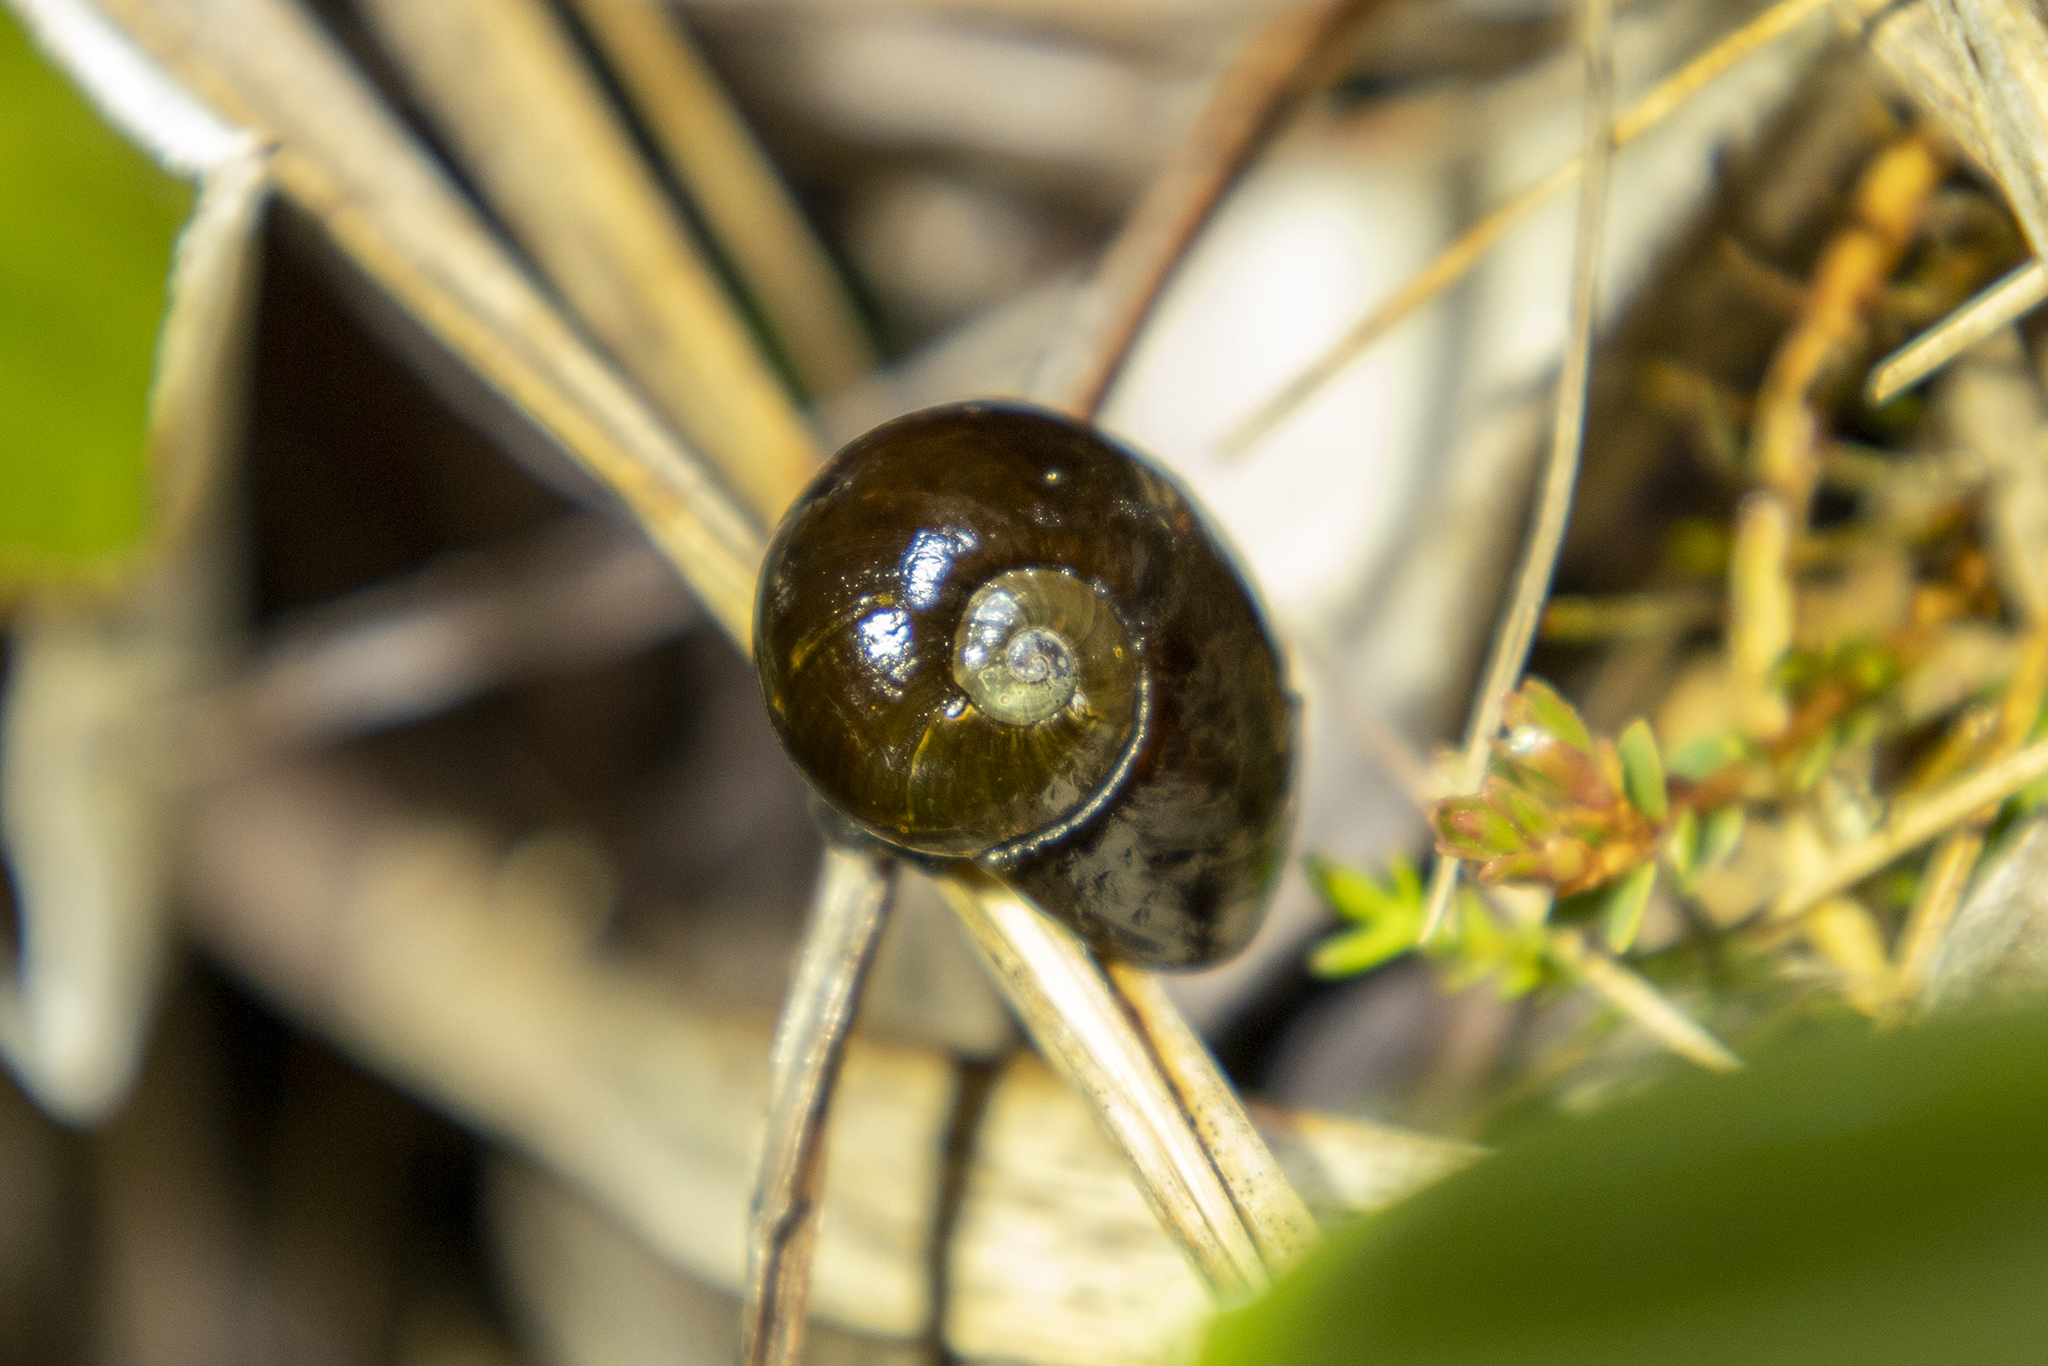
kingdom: Animalia
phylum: Mollusca
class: Gastropoda
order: Stylommatophora
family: Rhytididae
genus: Rhytida
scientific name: Rhytida citrina
